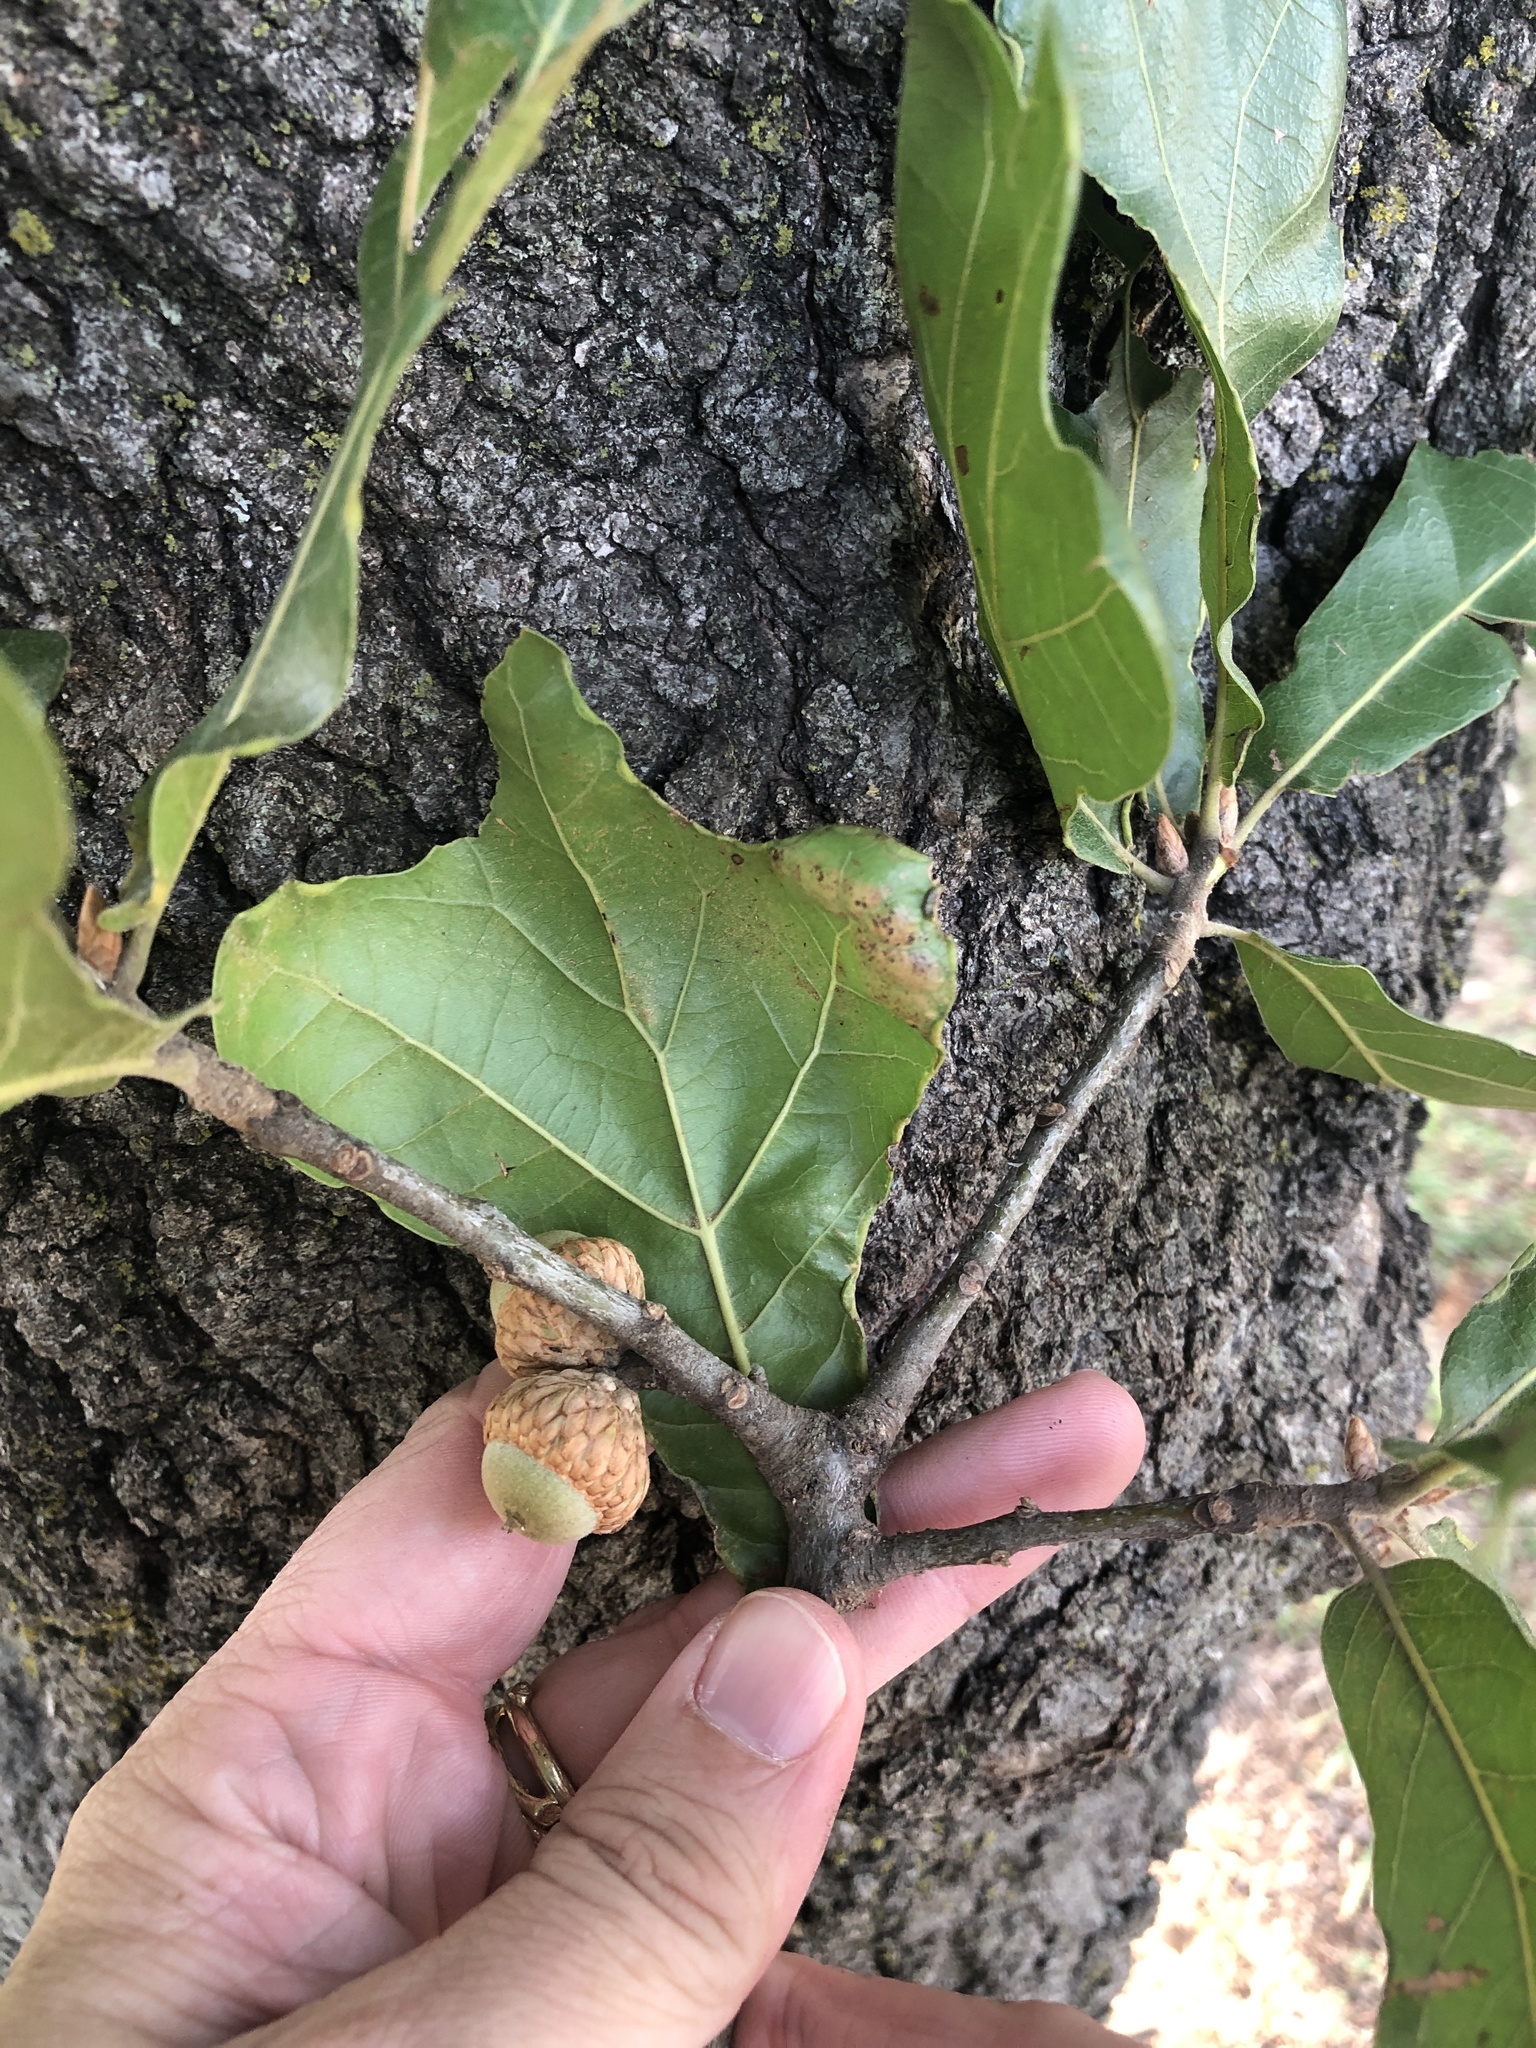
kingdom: Plantae
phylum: Tracheophyta
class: Magnoliopsida
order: Fagales
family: Fagaceae
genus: Quercus
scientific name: Quercus marilandica
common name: Blackjack oak
